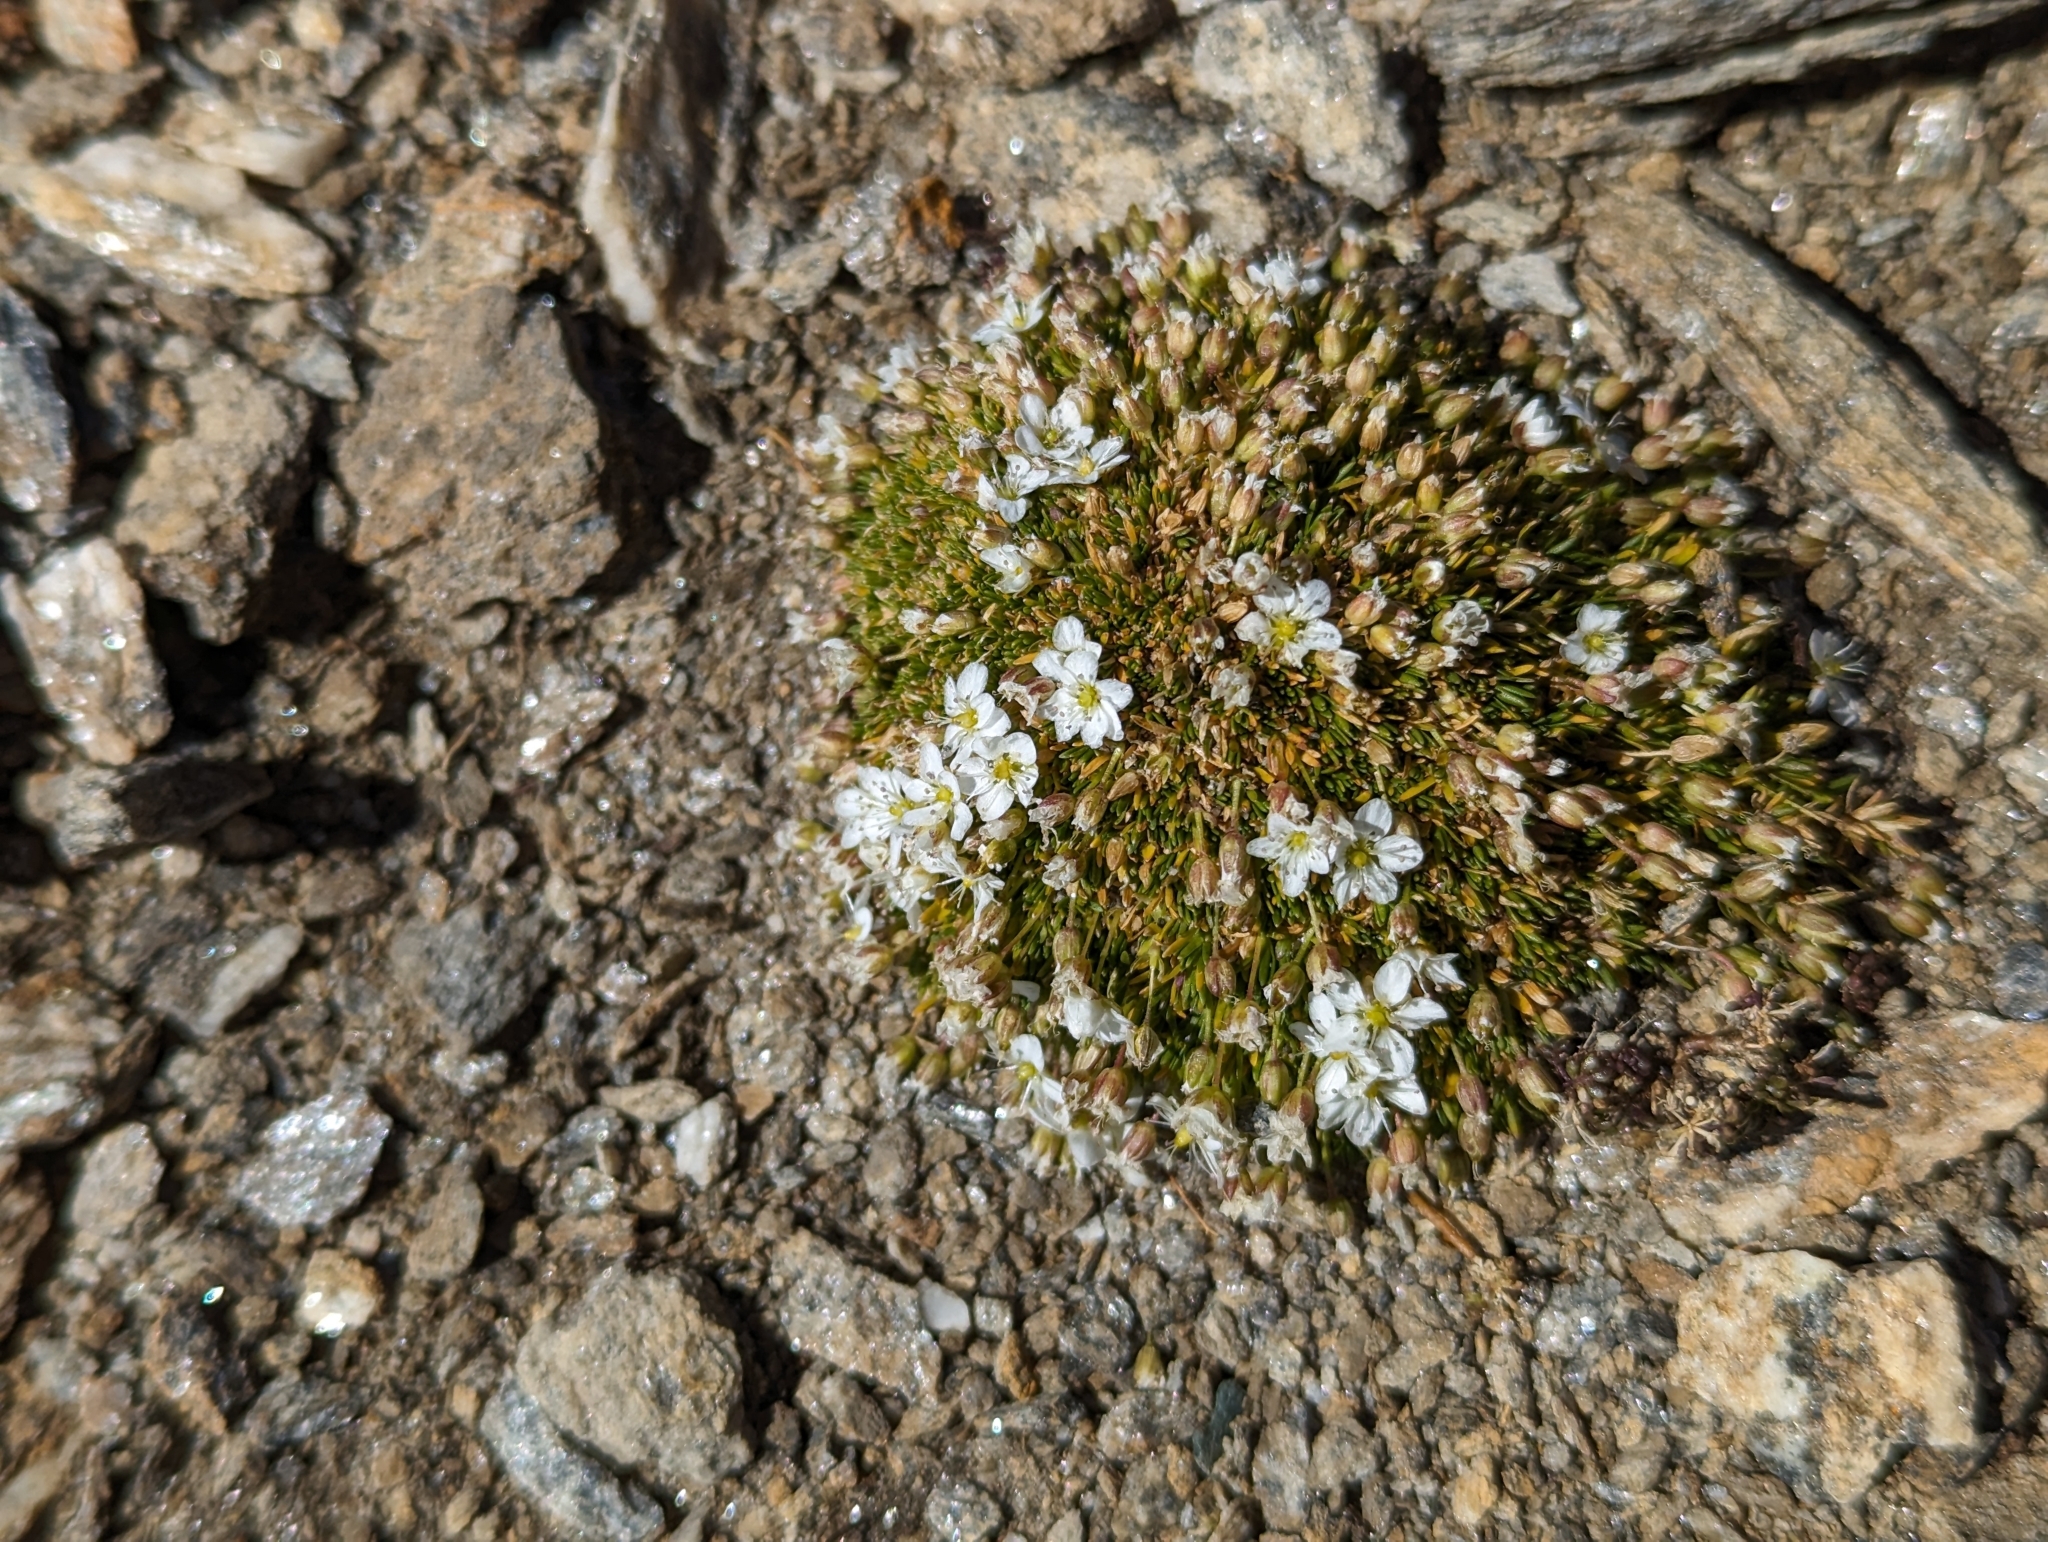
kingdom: Plantae
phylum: Tracheophyta
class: Magnoliopsida
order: Caryophyllales
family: Caryophyllaceae
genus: Arenaria
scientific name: Arenaria ciliata
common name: Fringed sandwort
